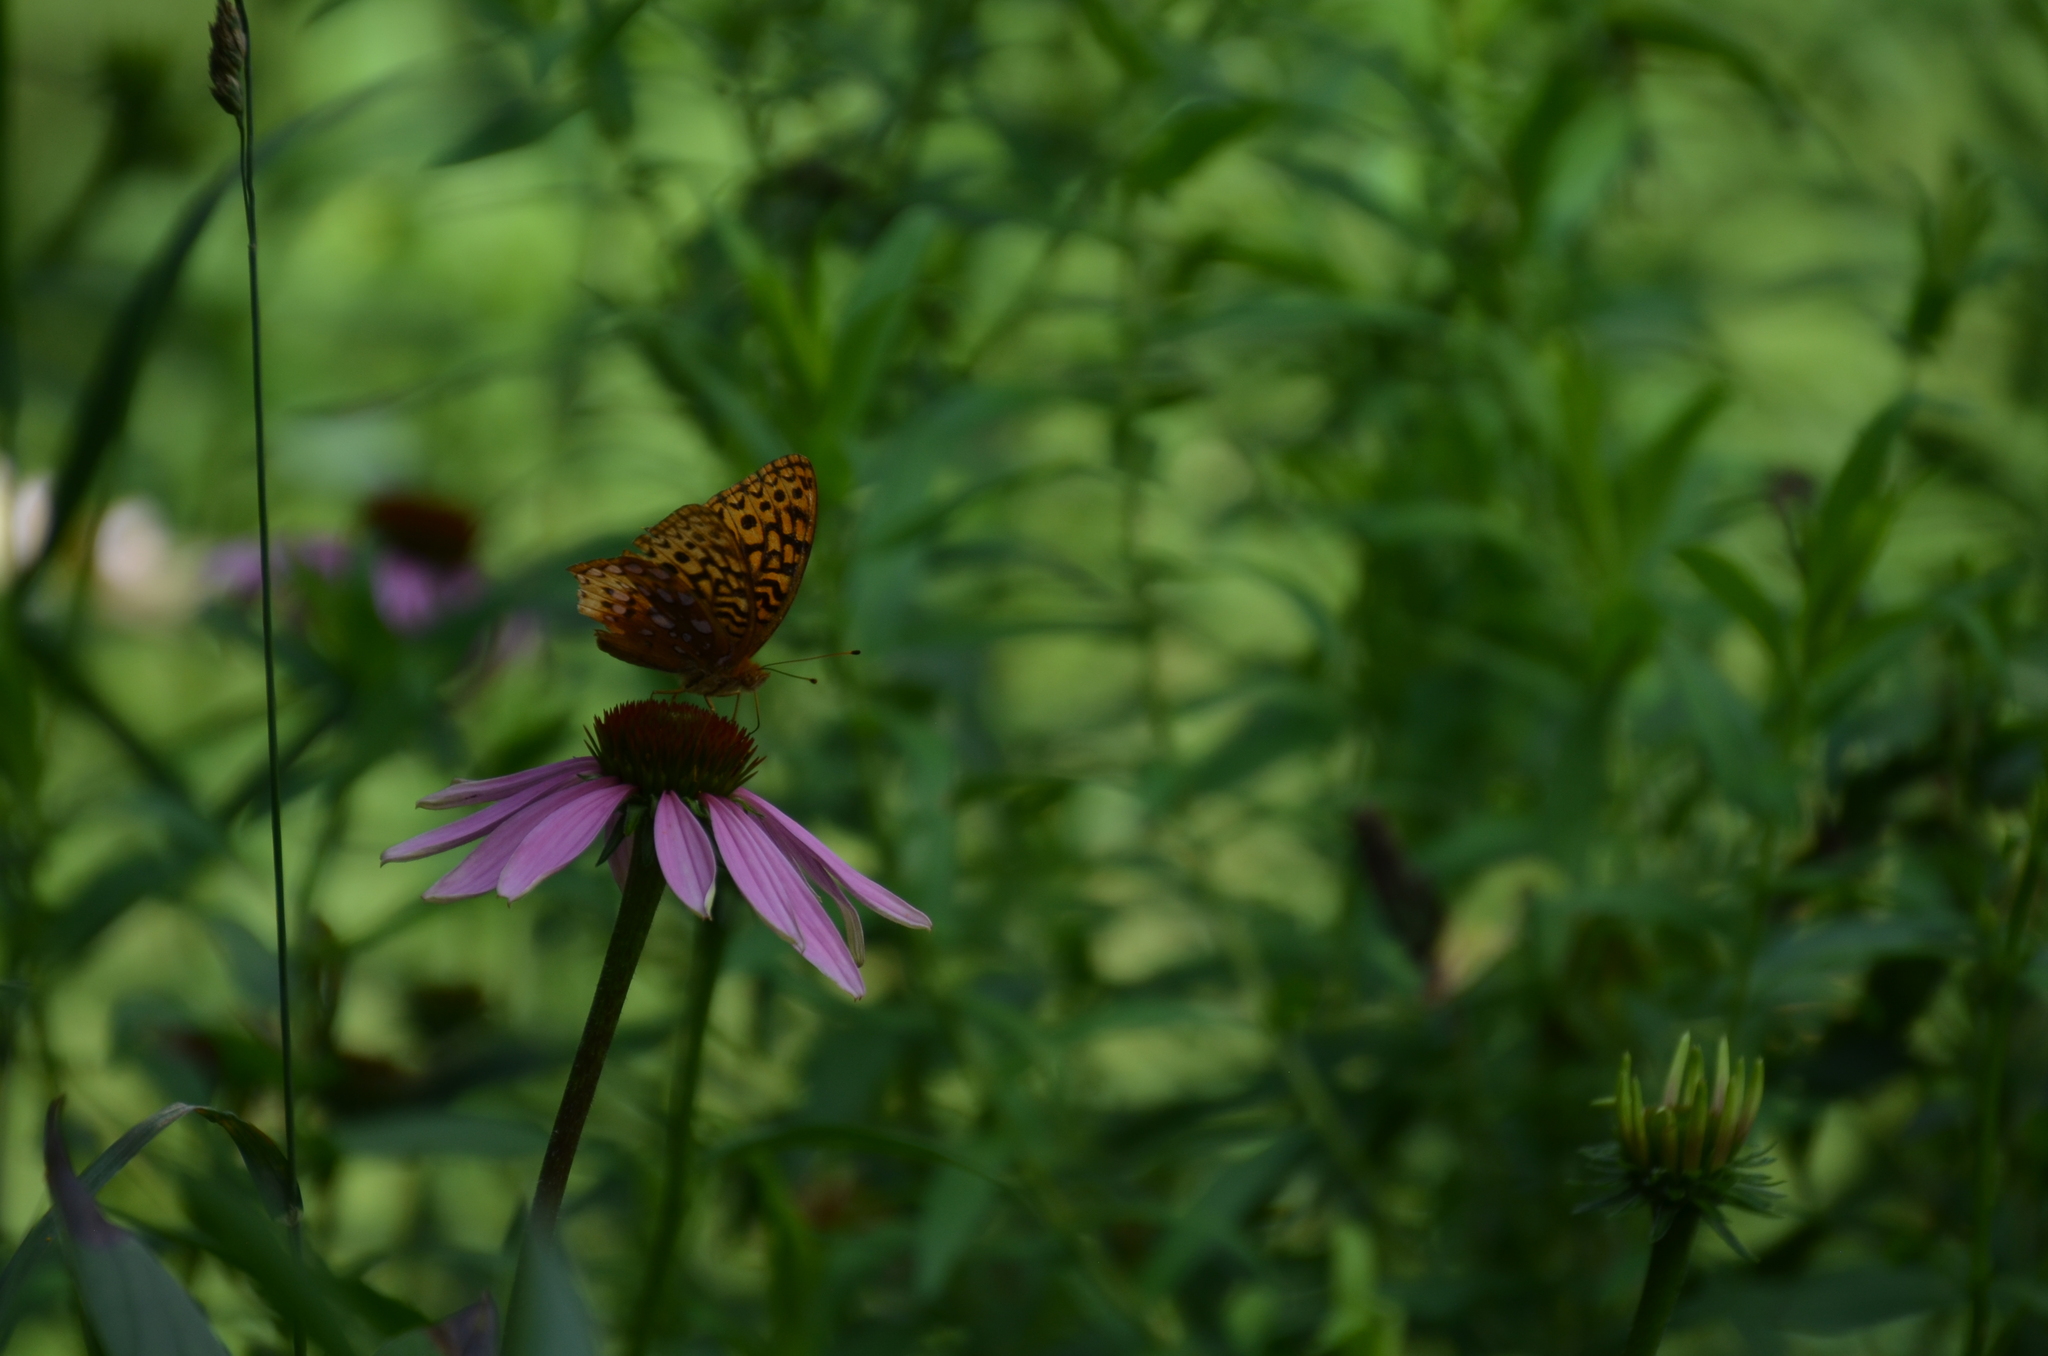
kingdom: Animalia
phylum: Arthropoda
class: Insecta
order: Lepidoptera
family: Nymphalidae
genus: Speyeria
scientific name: Speyeria cybele
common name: Great spangled fritillary
